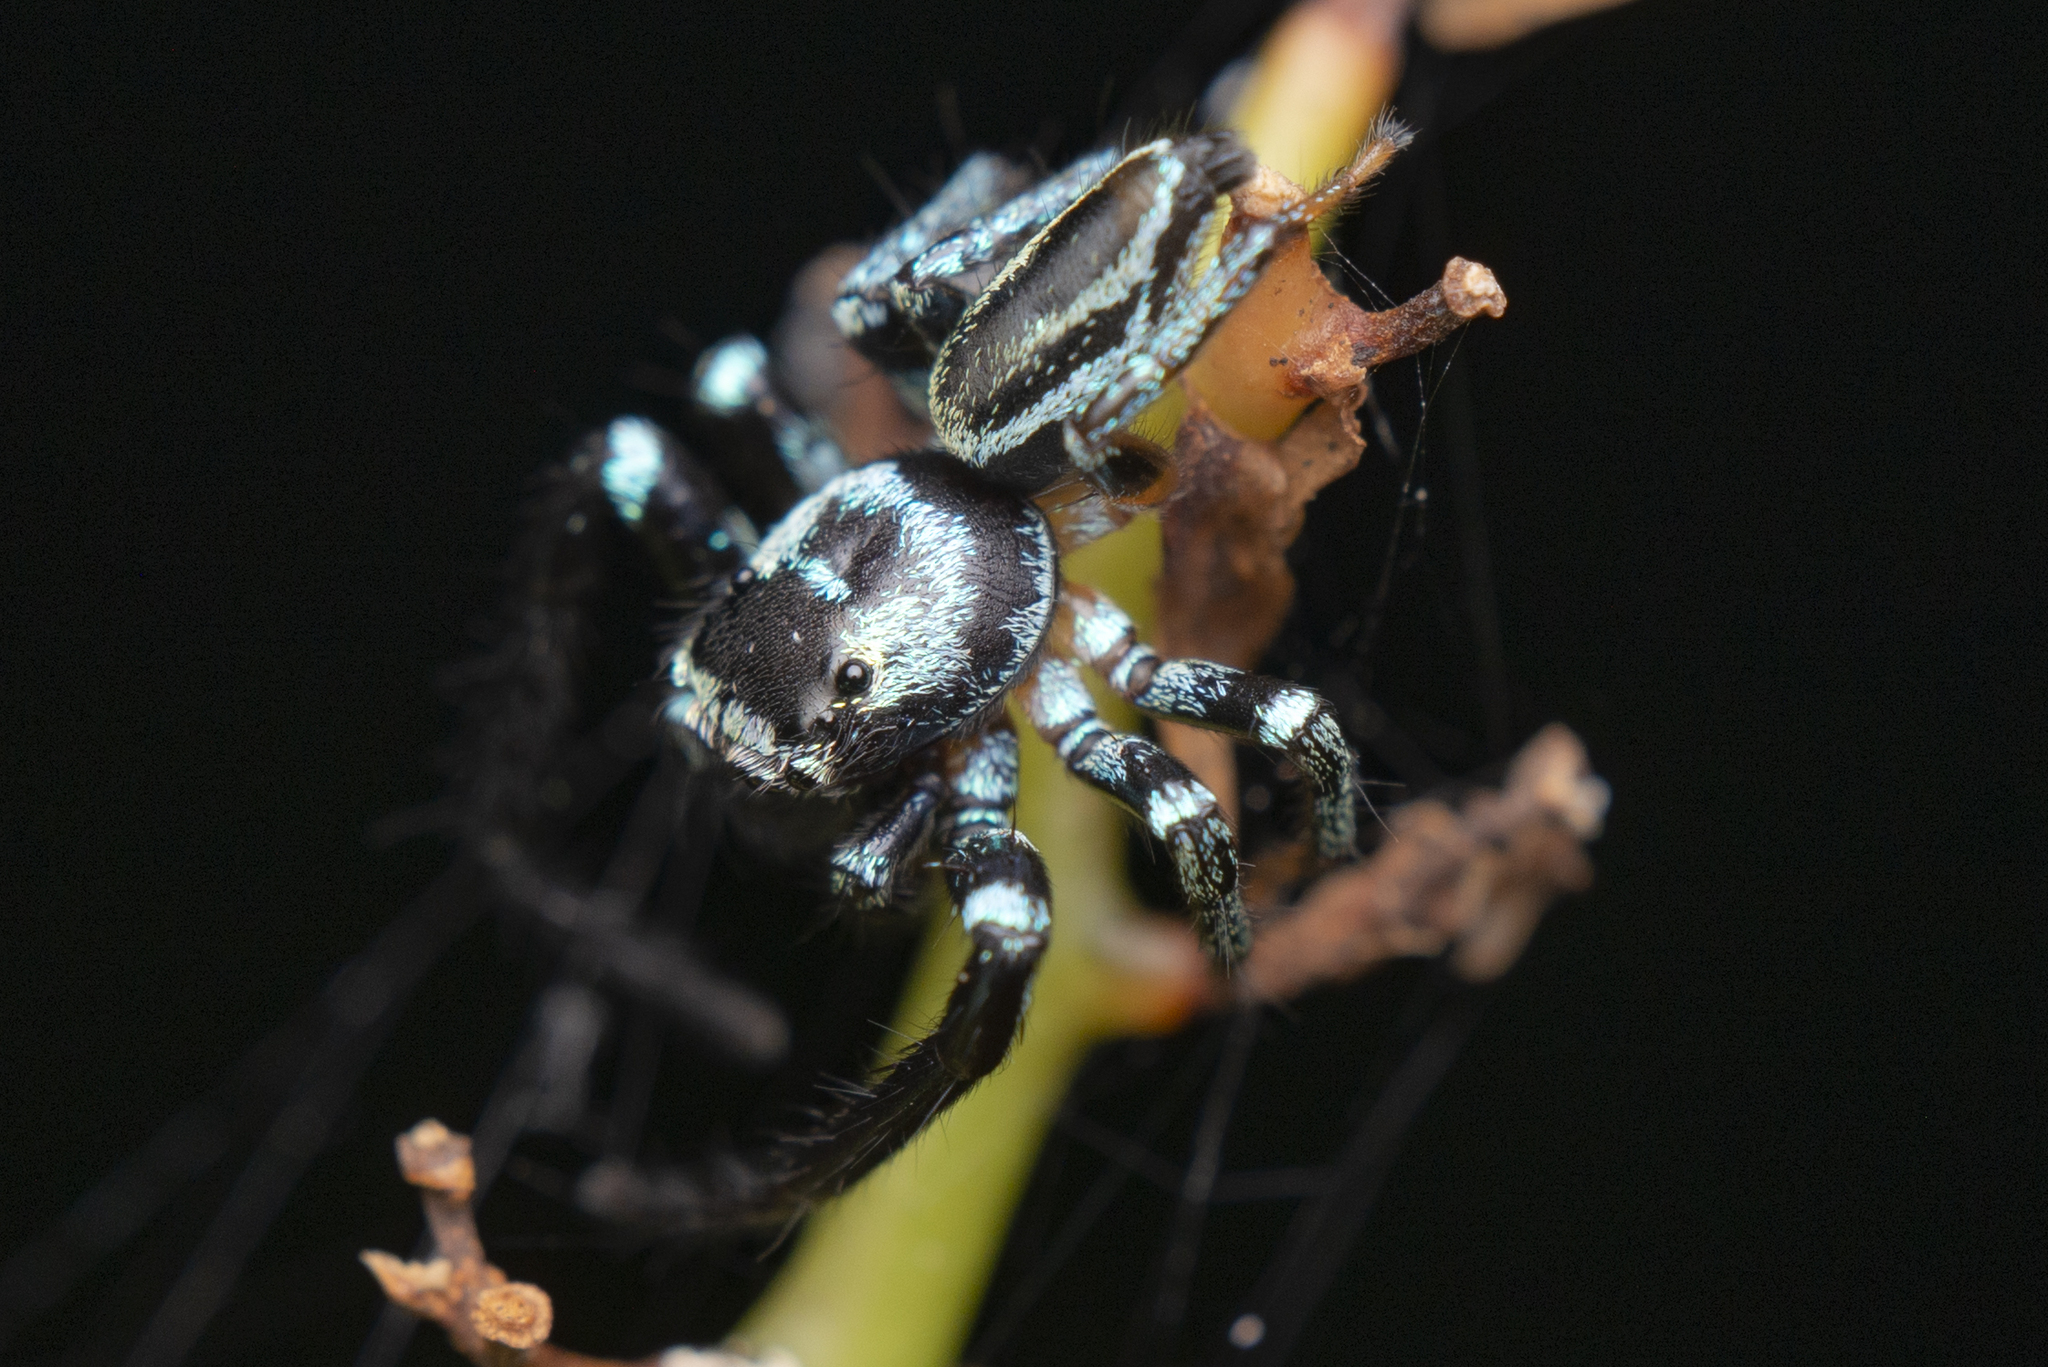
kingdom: Animalia
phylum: Arthropoda
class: Arachnida
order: Araneae
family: Salticidae
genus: Thiania
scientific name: Thiania suboppressa
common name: Jumping spider
